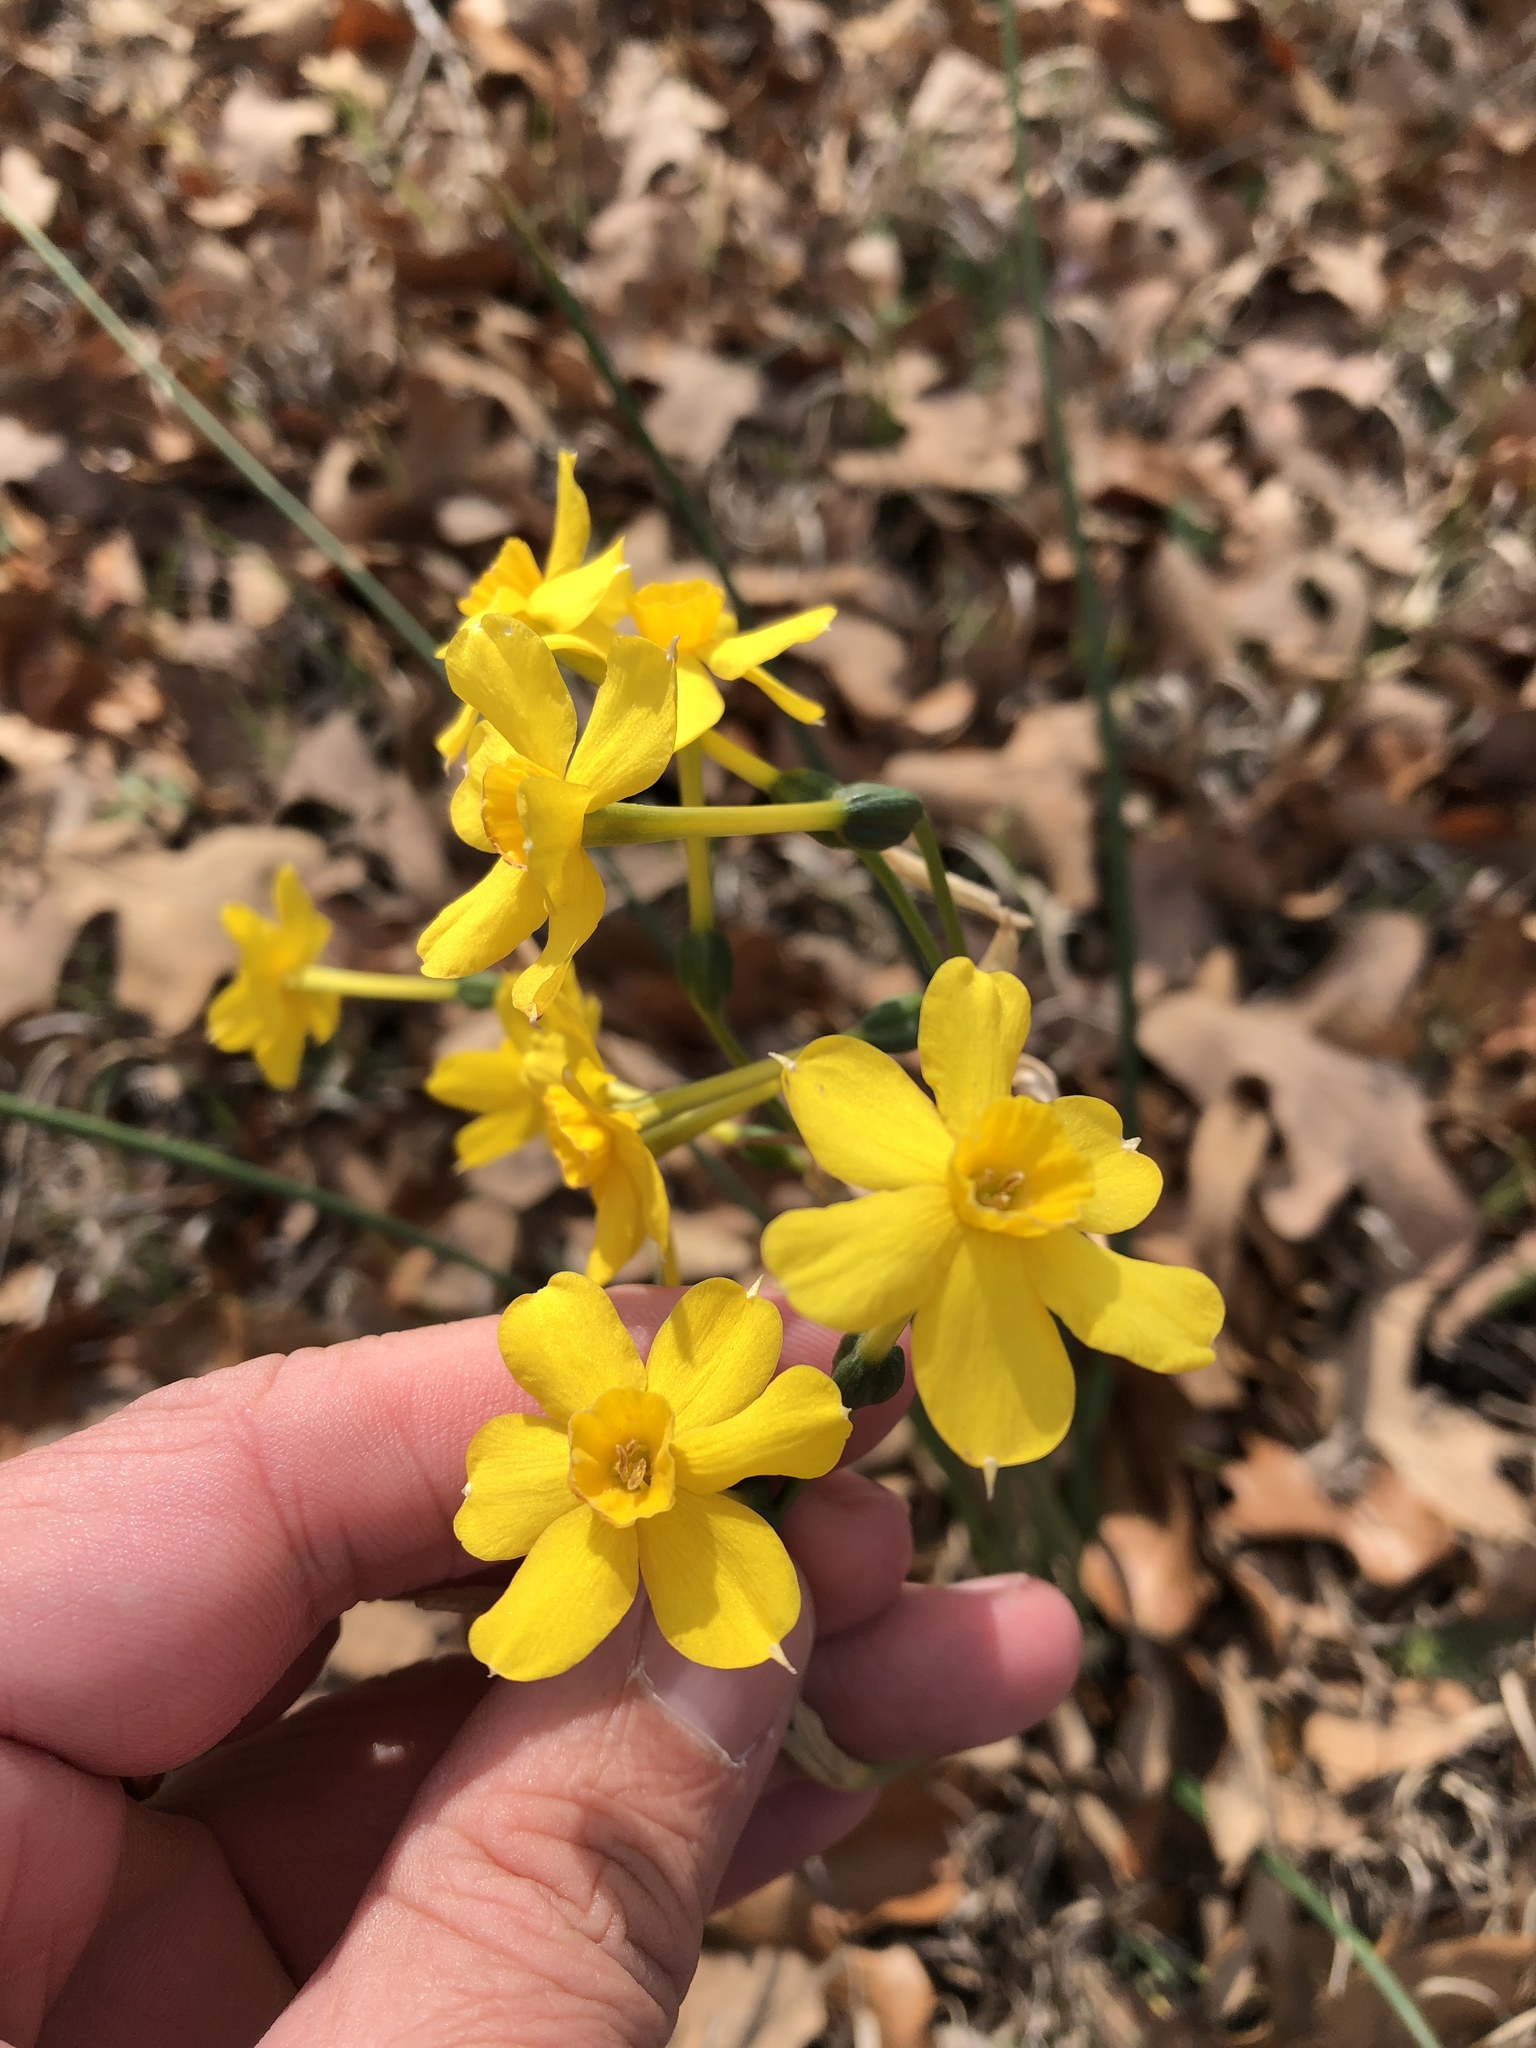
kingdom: Plantae
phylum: Tracheophyta
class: Liliopsida
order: Asparagales
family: Amaryllidaceae
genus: Narcissus
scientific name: Narcissus jonquilla
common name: Jonquil
